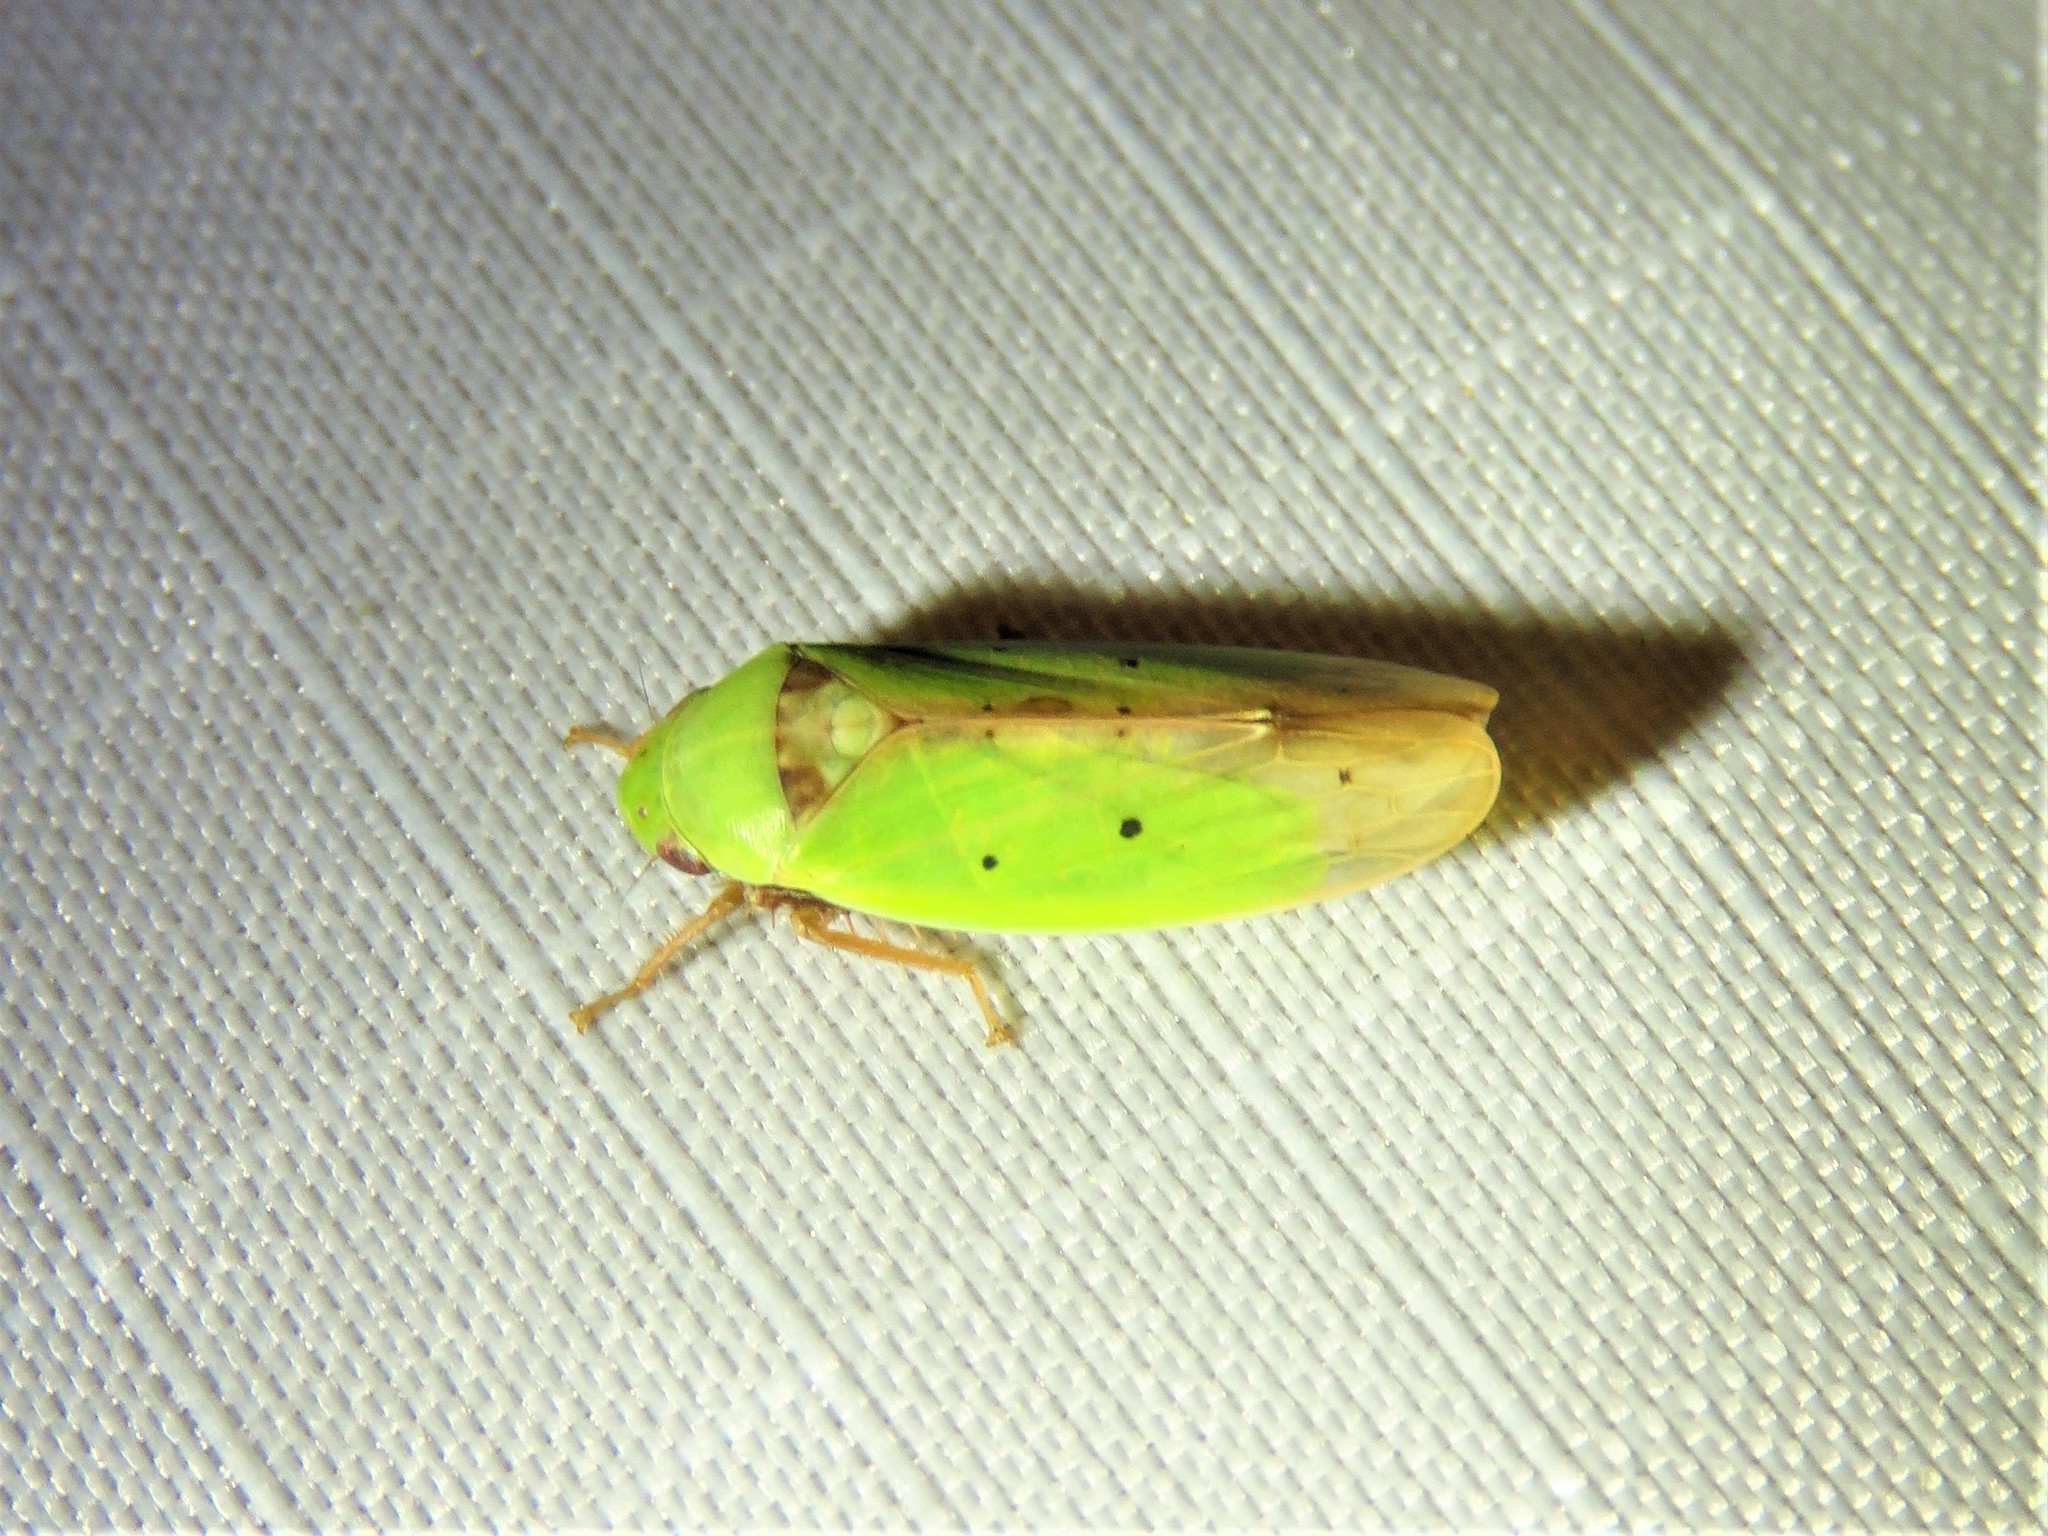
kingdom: Animalia
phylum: Arthropoda
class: Insecta
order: Hemiptera
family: Cicadellidae
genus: Ponana
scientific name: Ponana
